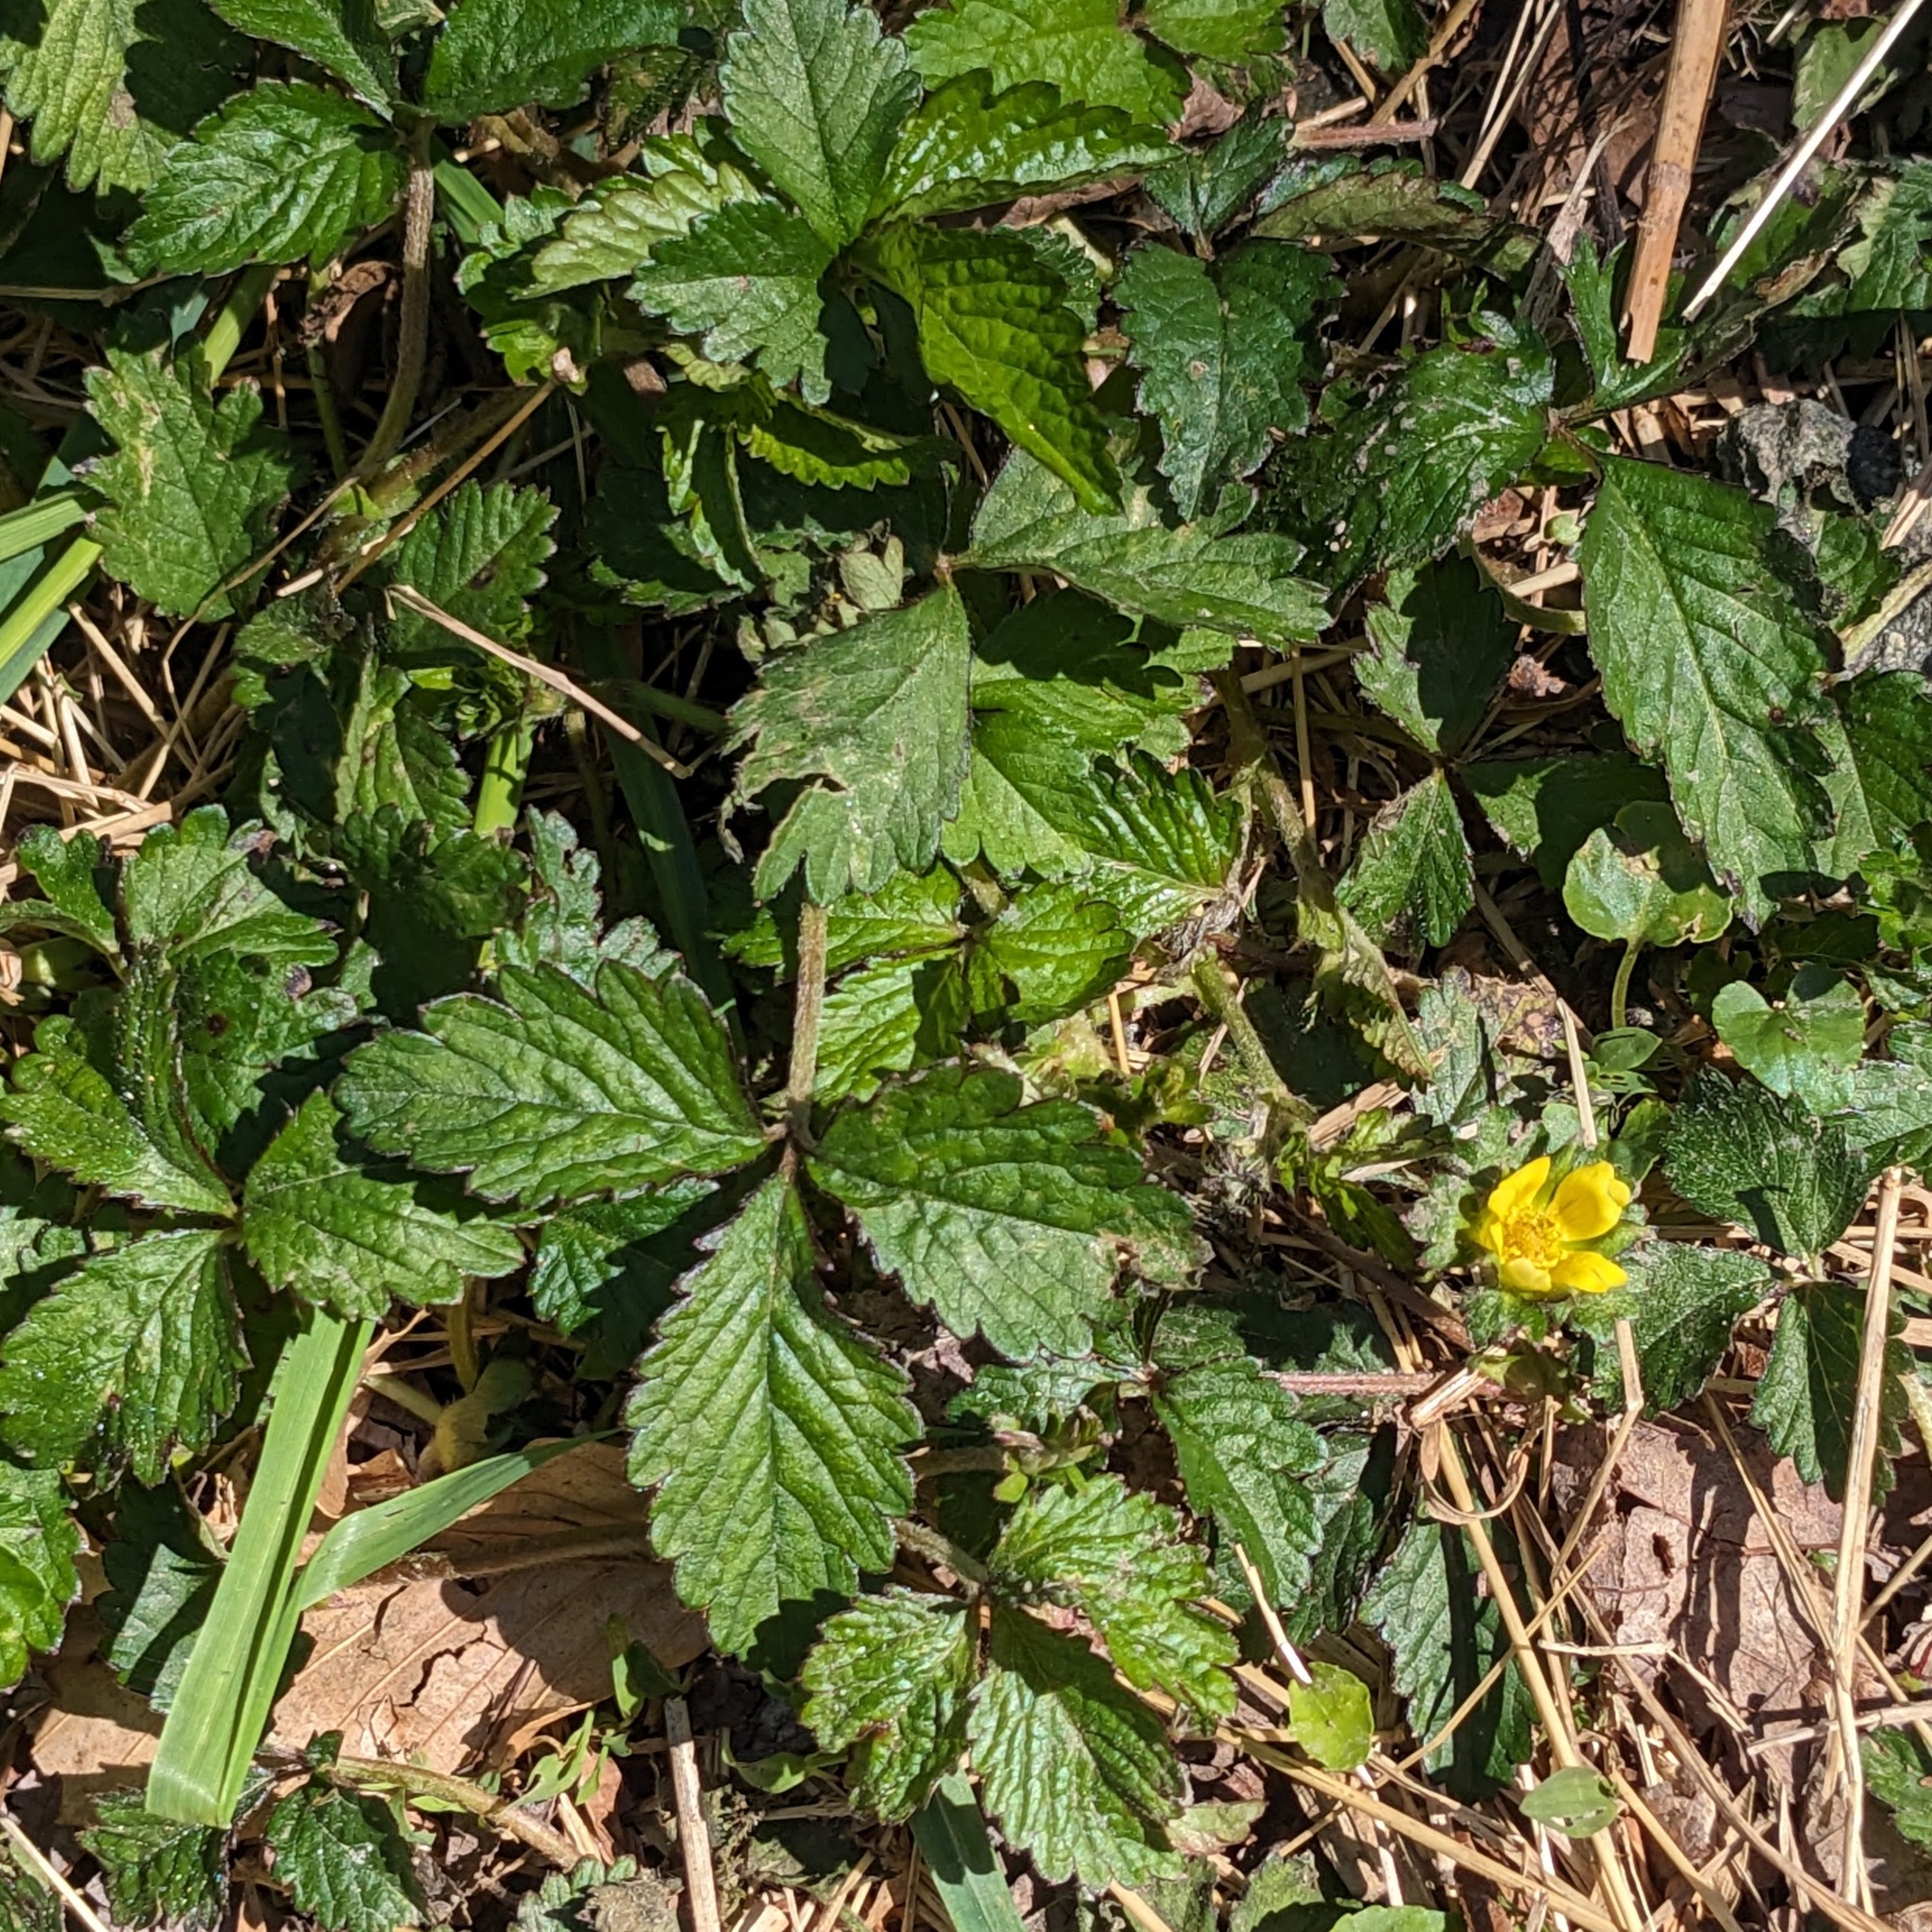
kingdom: Plantae
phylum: Tracheophyta
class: Magnoliopsida
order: Rosales
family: Rosaceae
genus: Potentilla
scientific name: Potentilla indica
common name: Yellow-flowered strawberry
